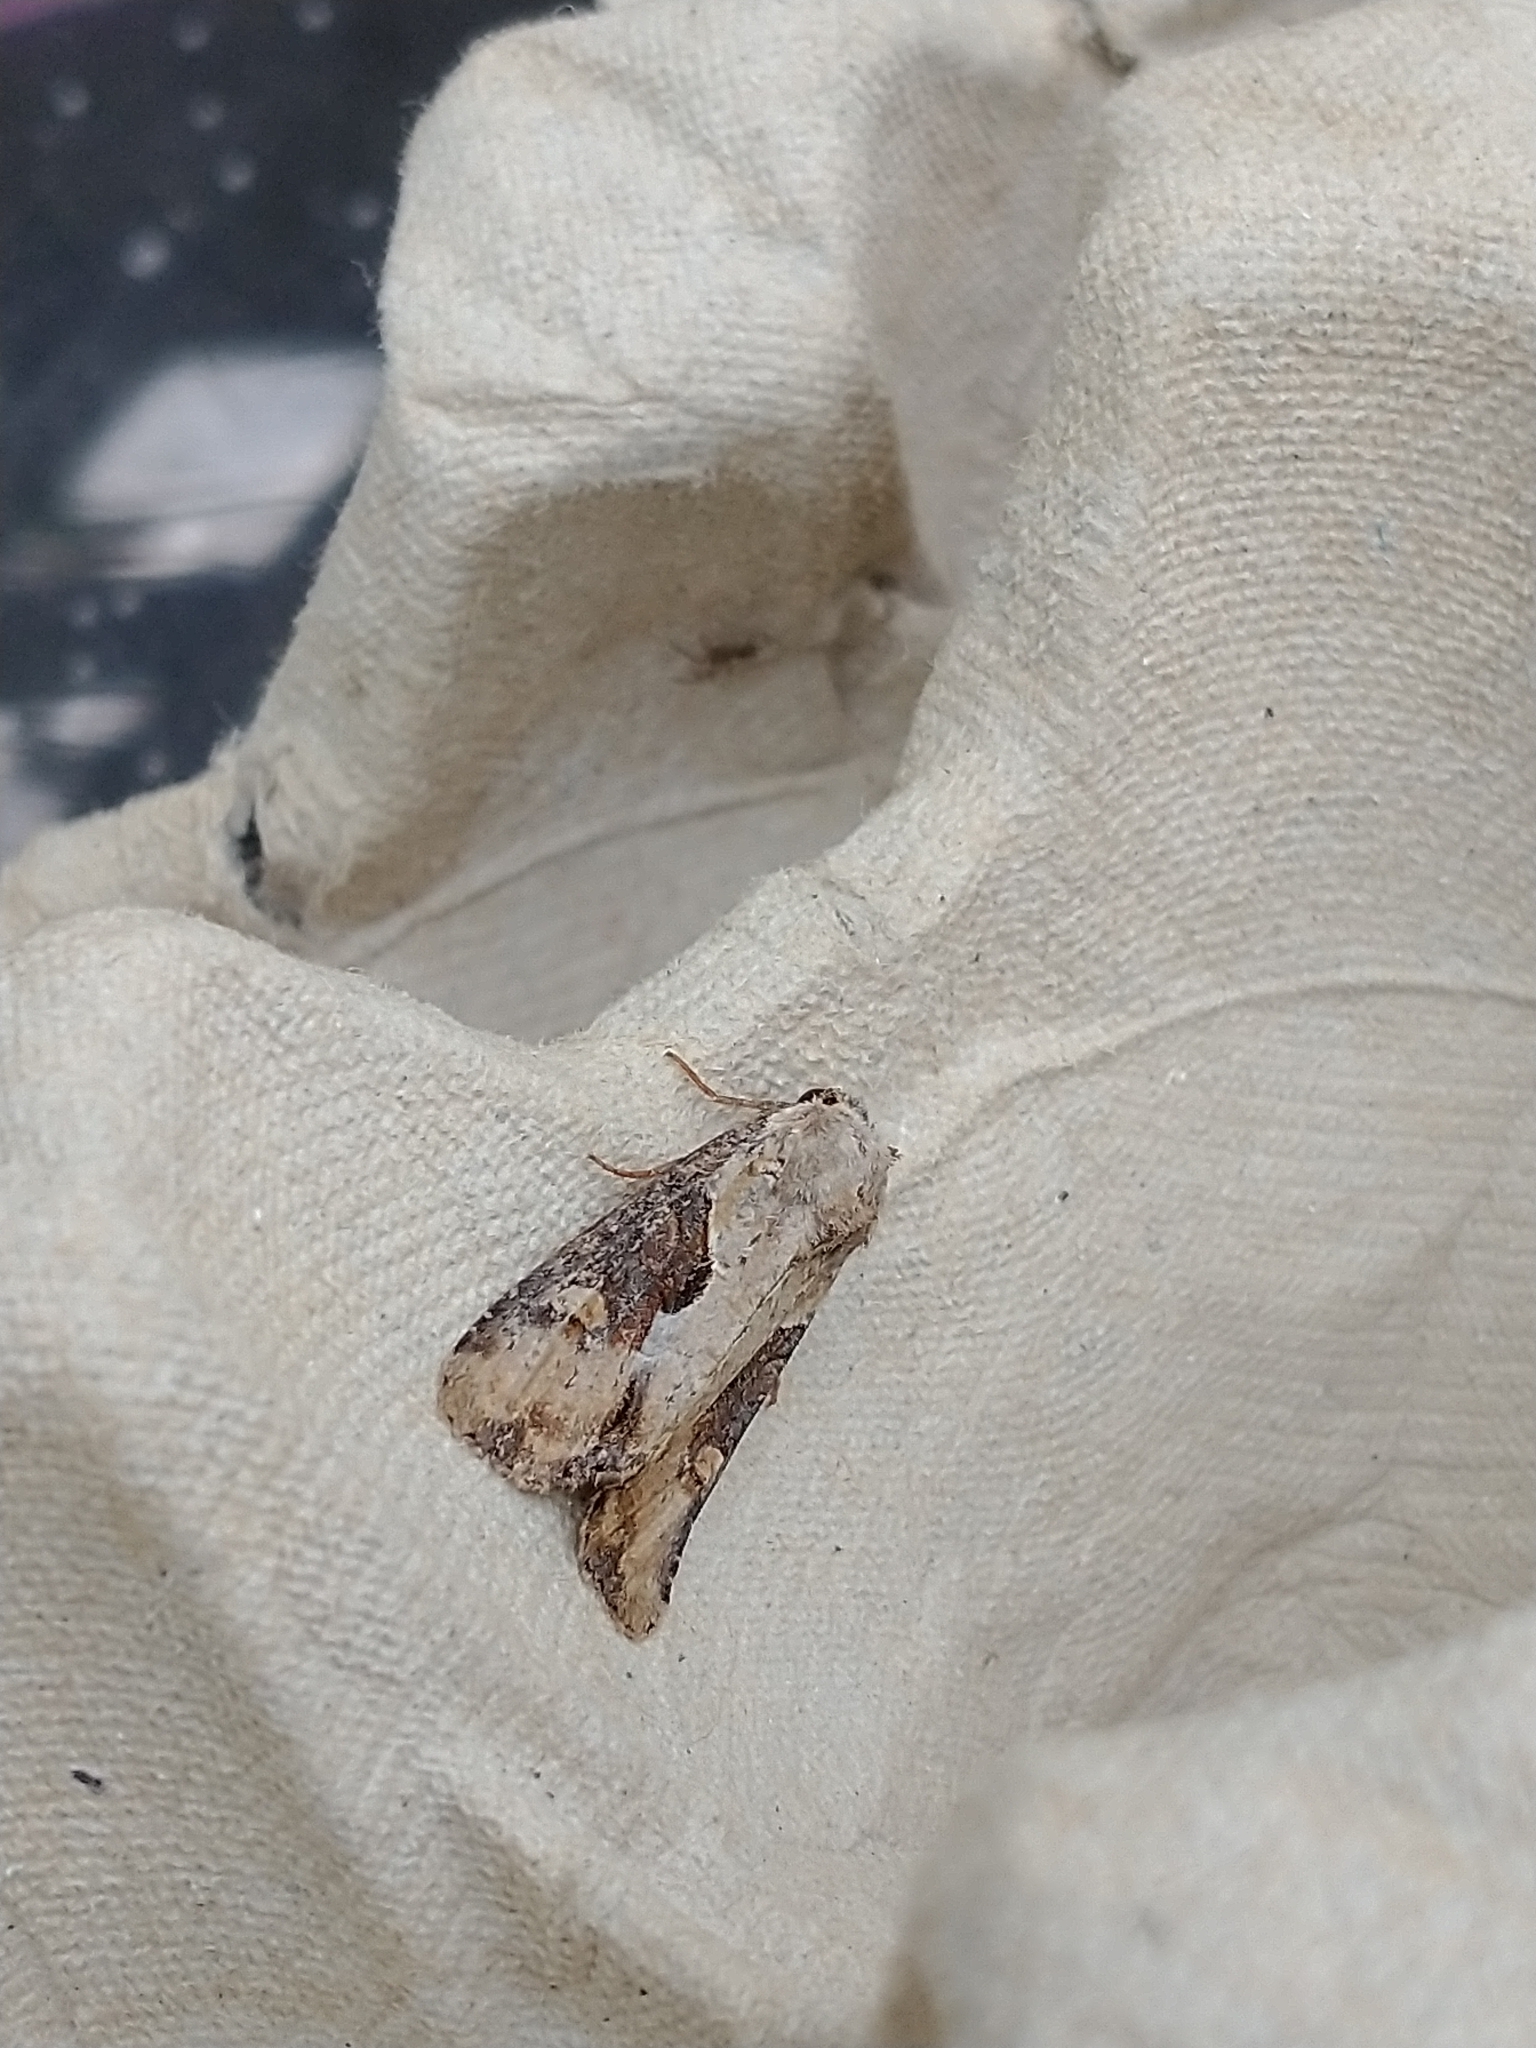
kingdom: Animalia
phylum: Arthropoda
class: Insecta
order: Lepidoptera
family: Noctuidae
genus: Lateroligia
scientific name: Lateroligia ophiogramma
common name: Double lobed
